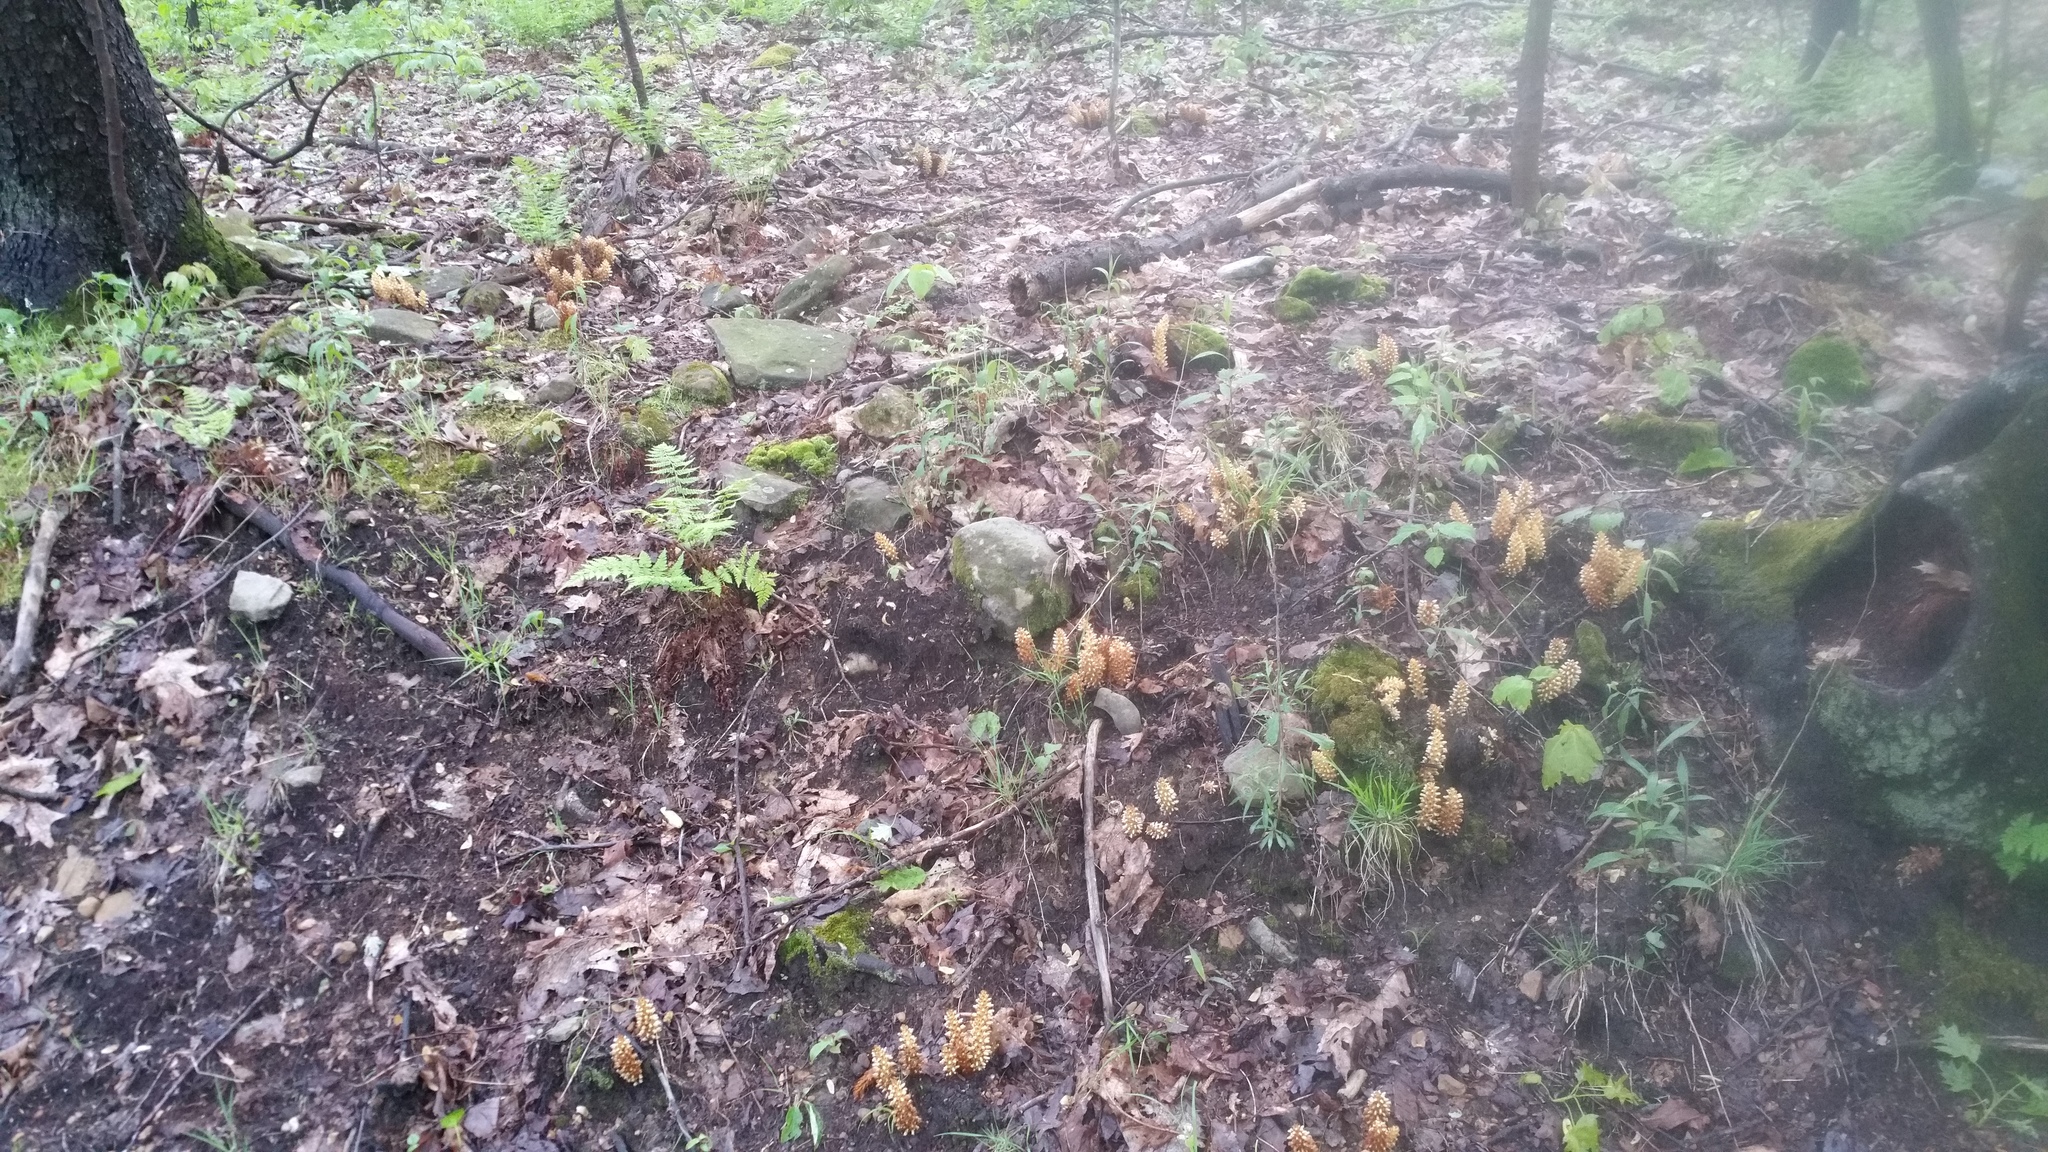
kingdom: Plantae
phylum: Tracheophyta
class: Magnoliopsida
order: Lamiales
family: Orobanchaceae
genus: Conopholis
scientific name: Conopholis americana
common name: American cancer-root
